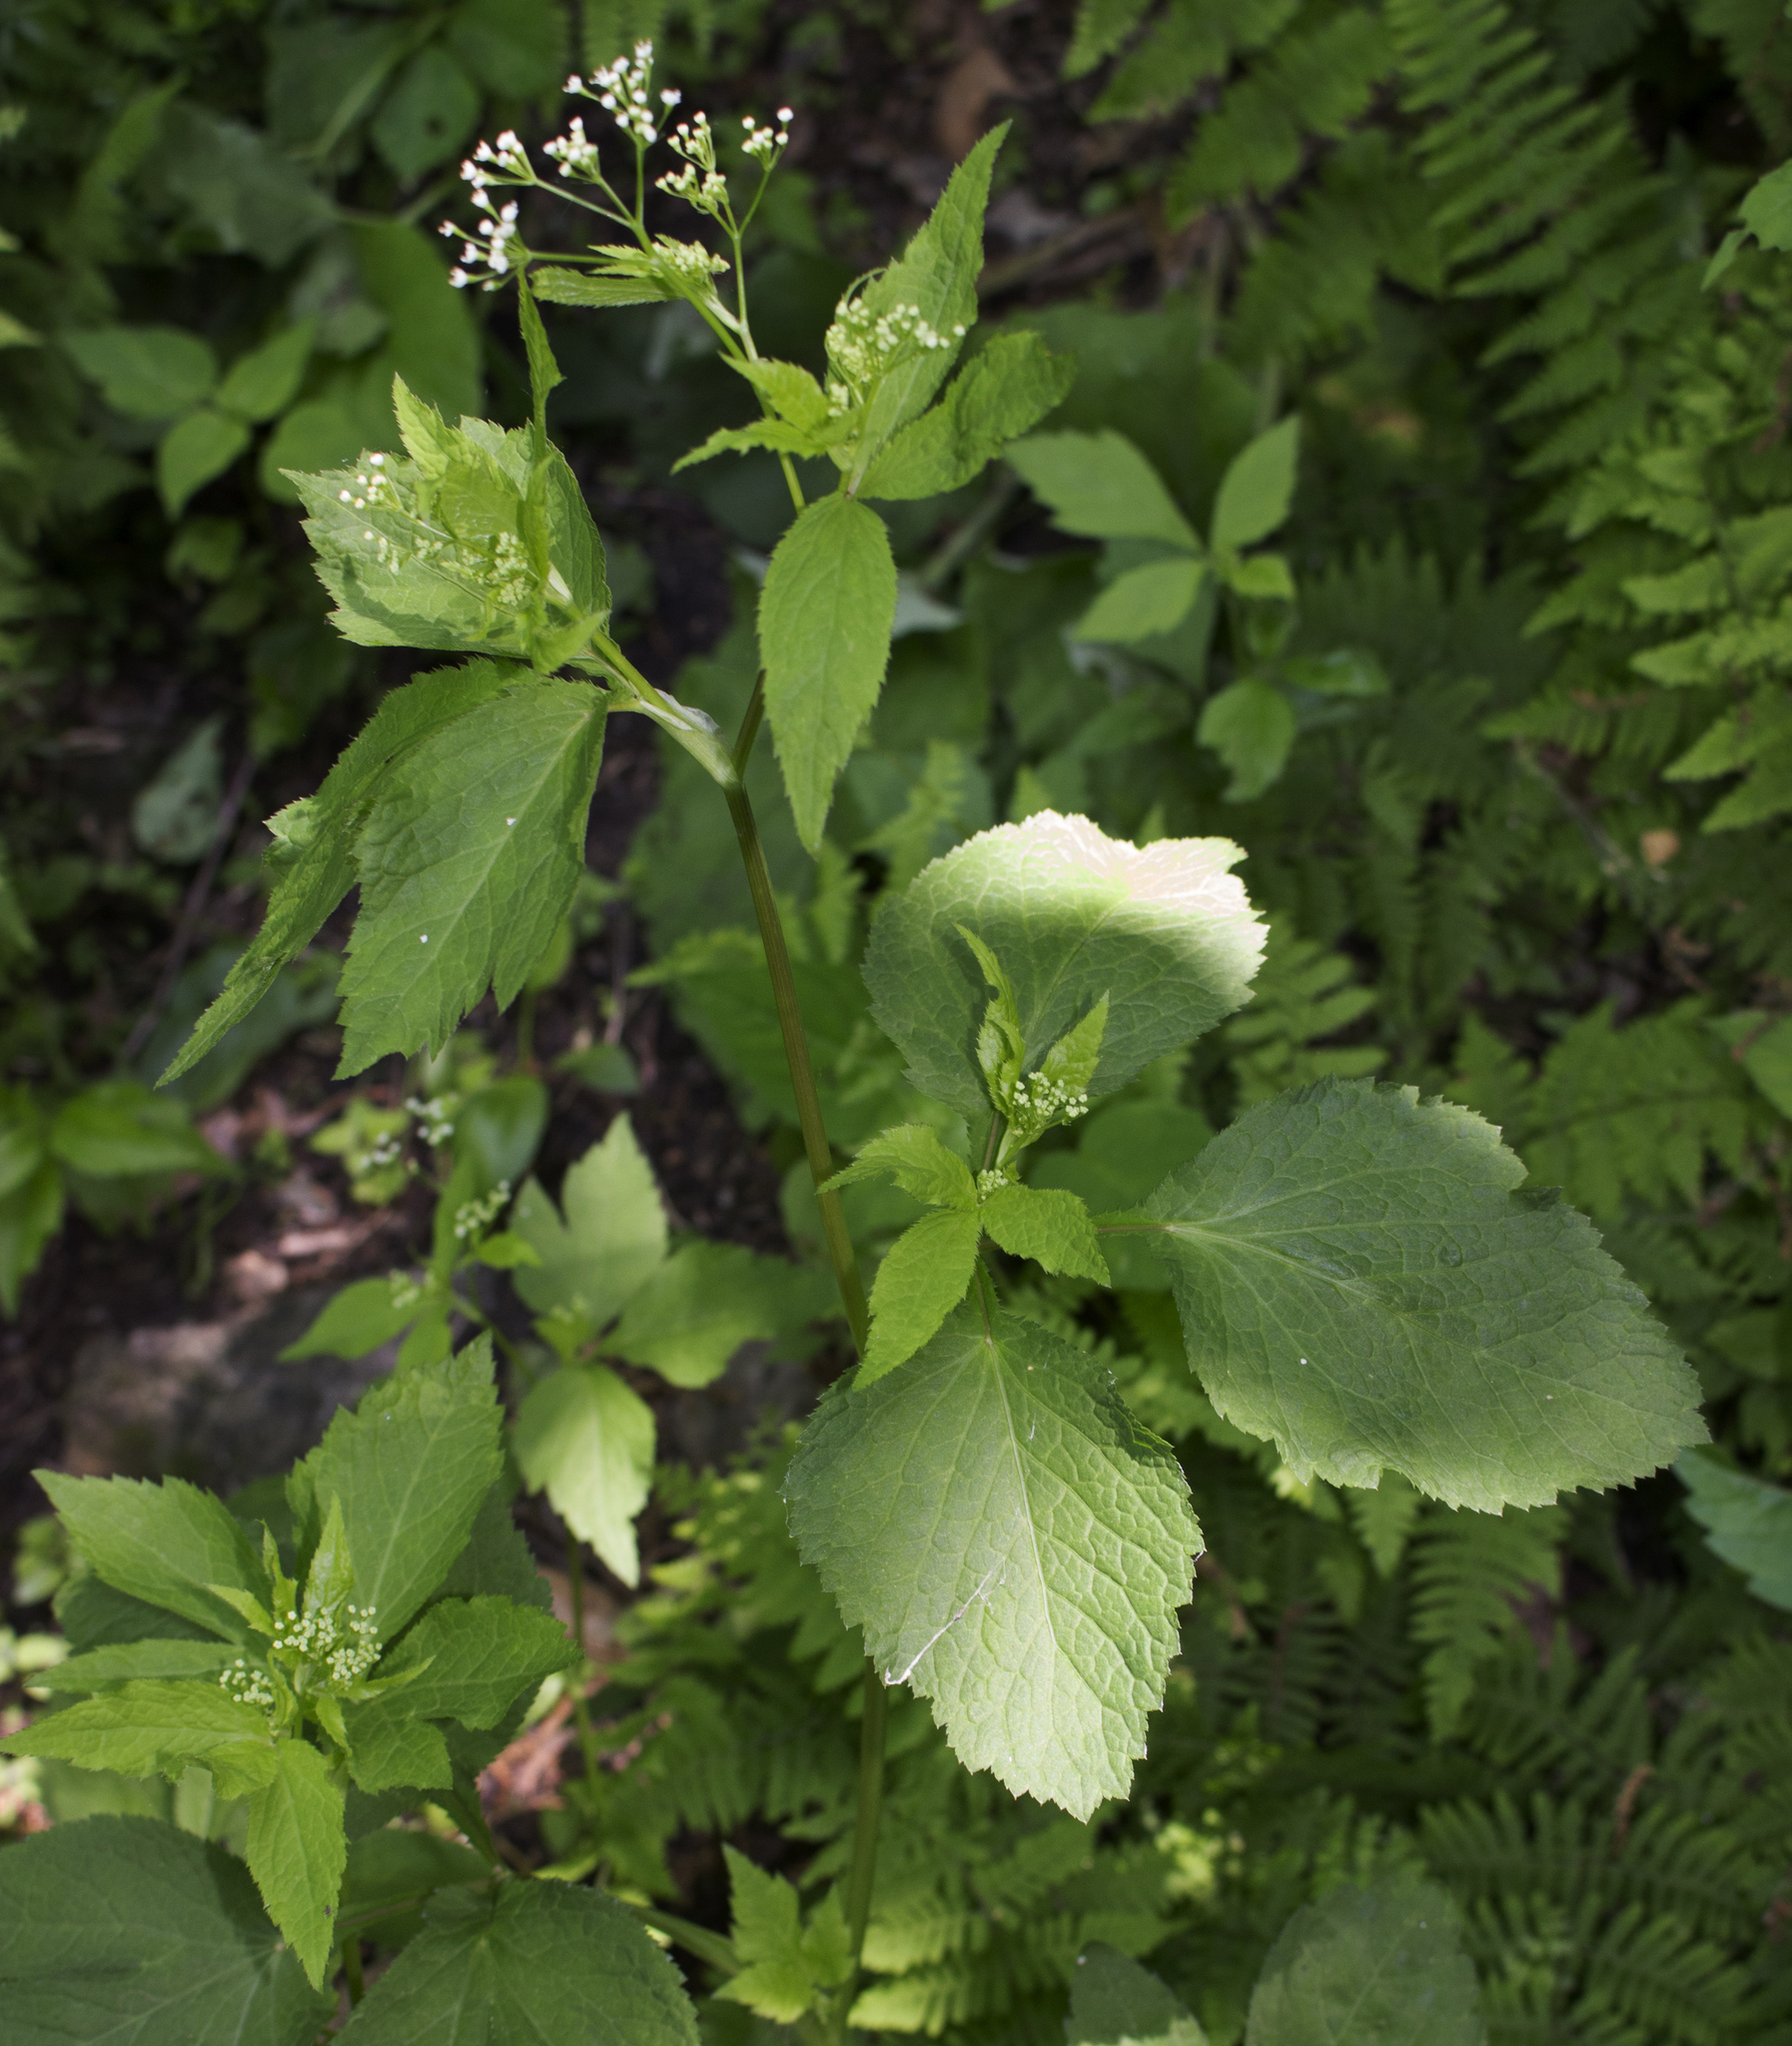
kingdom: Plantae
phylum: Tracheophyta
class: Magnoliopsida
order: Apiales
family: Apiaceae
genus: Cryptotaenia
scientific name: Cryptotaenia canadensis
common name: Honewort
